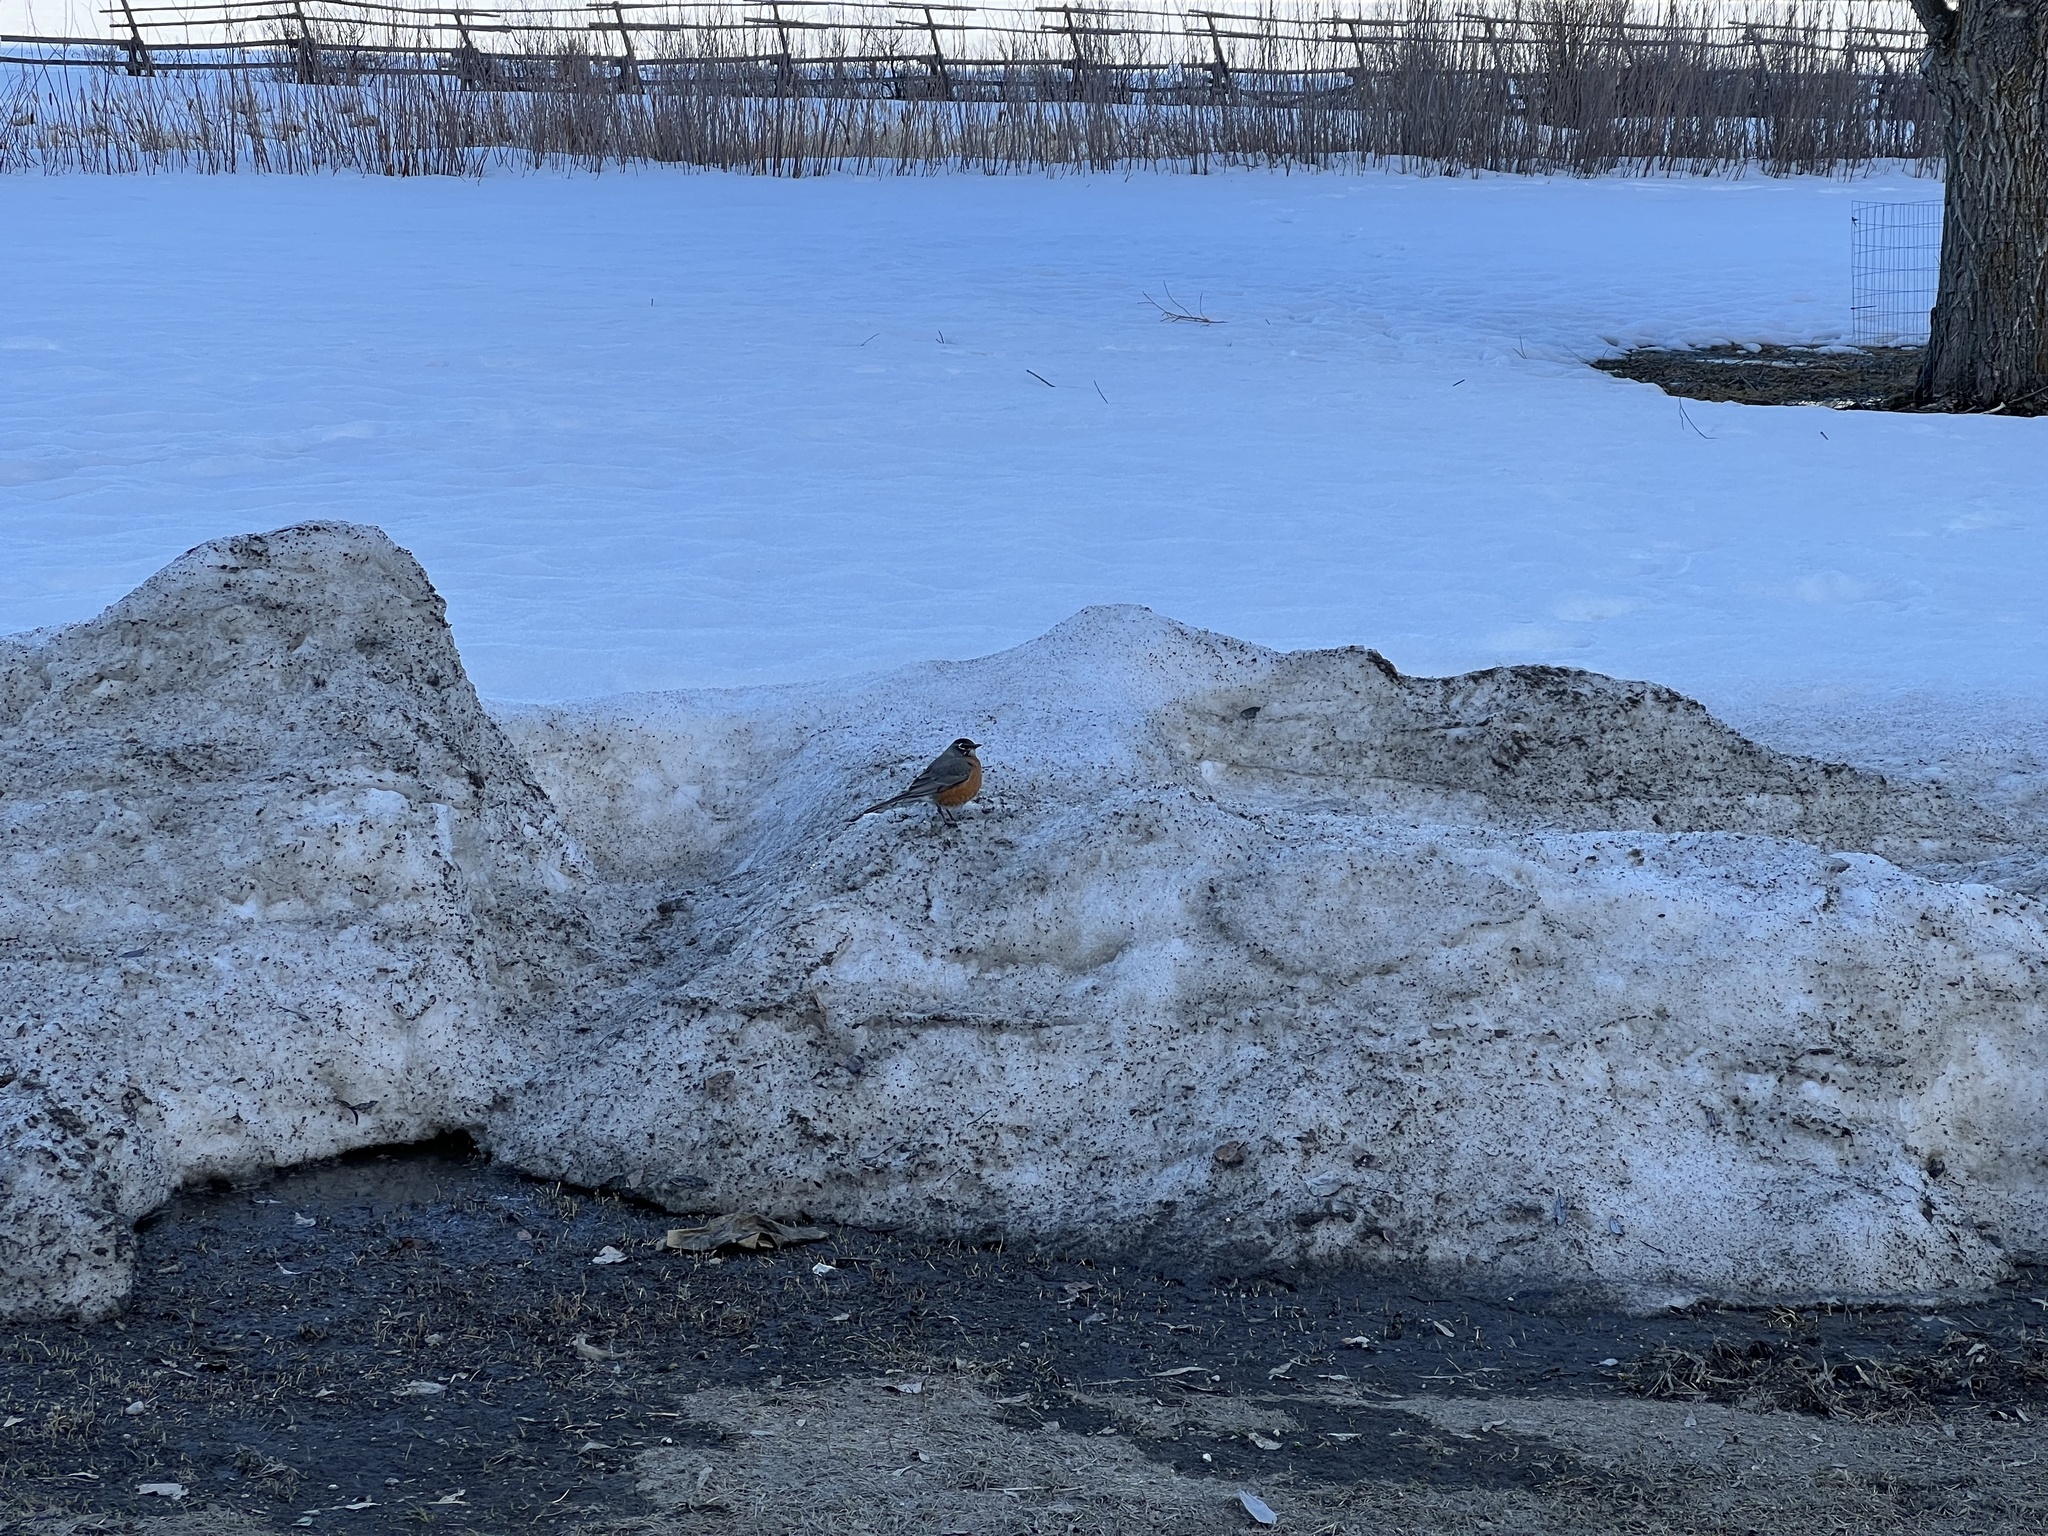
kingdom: Animalia
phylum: Chordata
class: Aves
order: Passeriformes
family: Turdidae
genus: Turdus
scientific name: Turdus migratorius
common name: American robin
